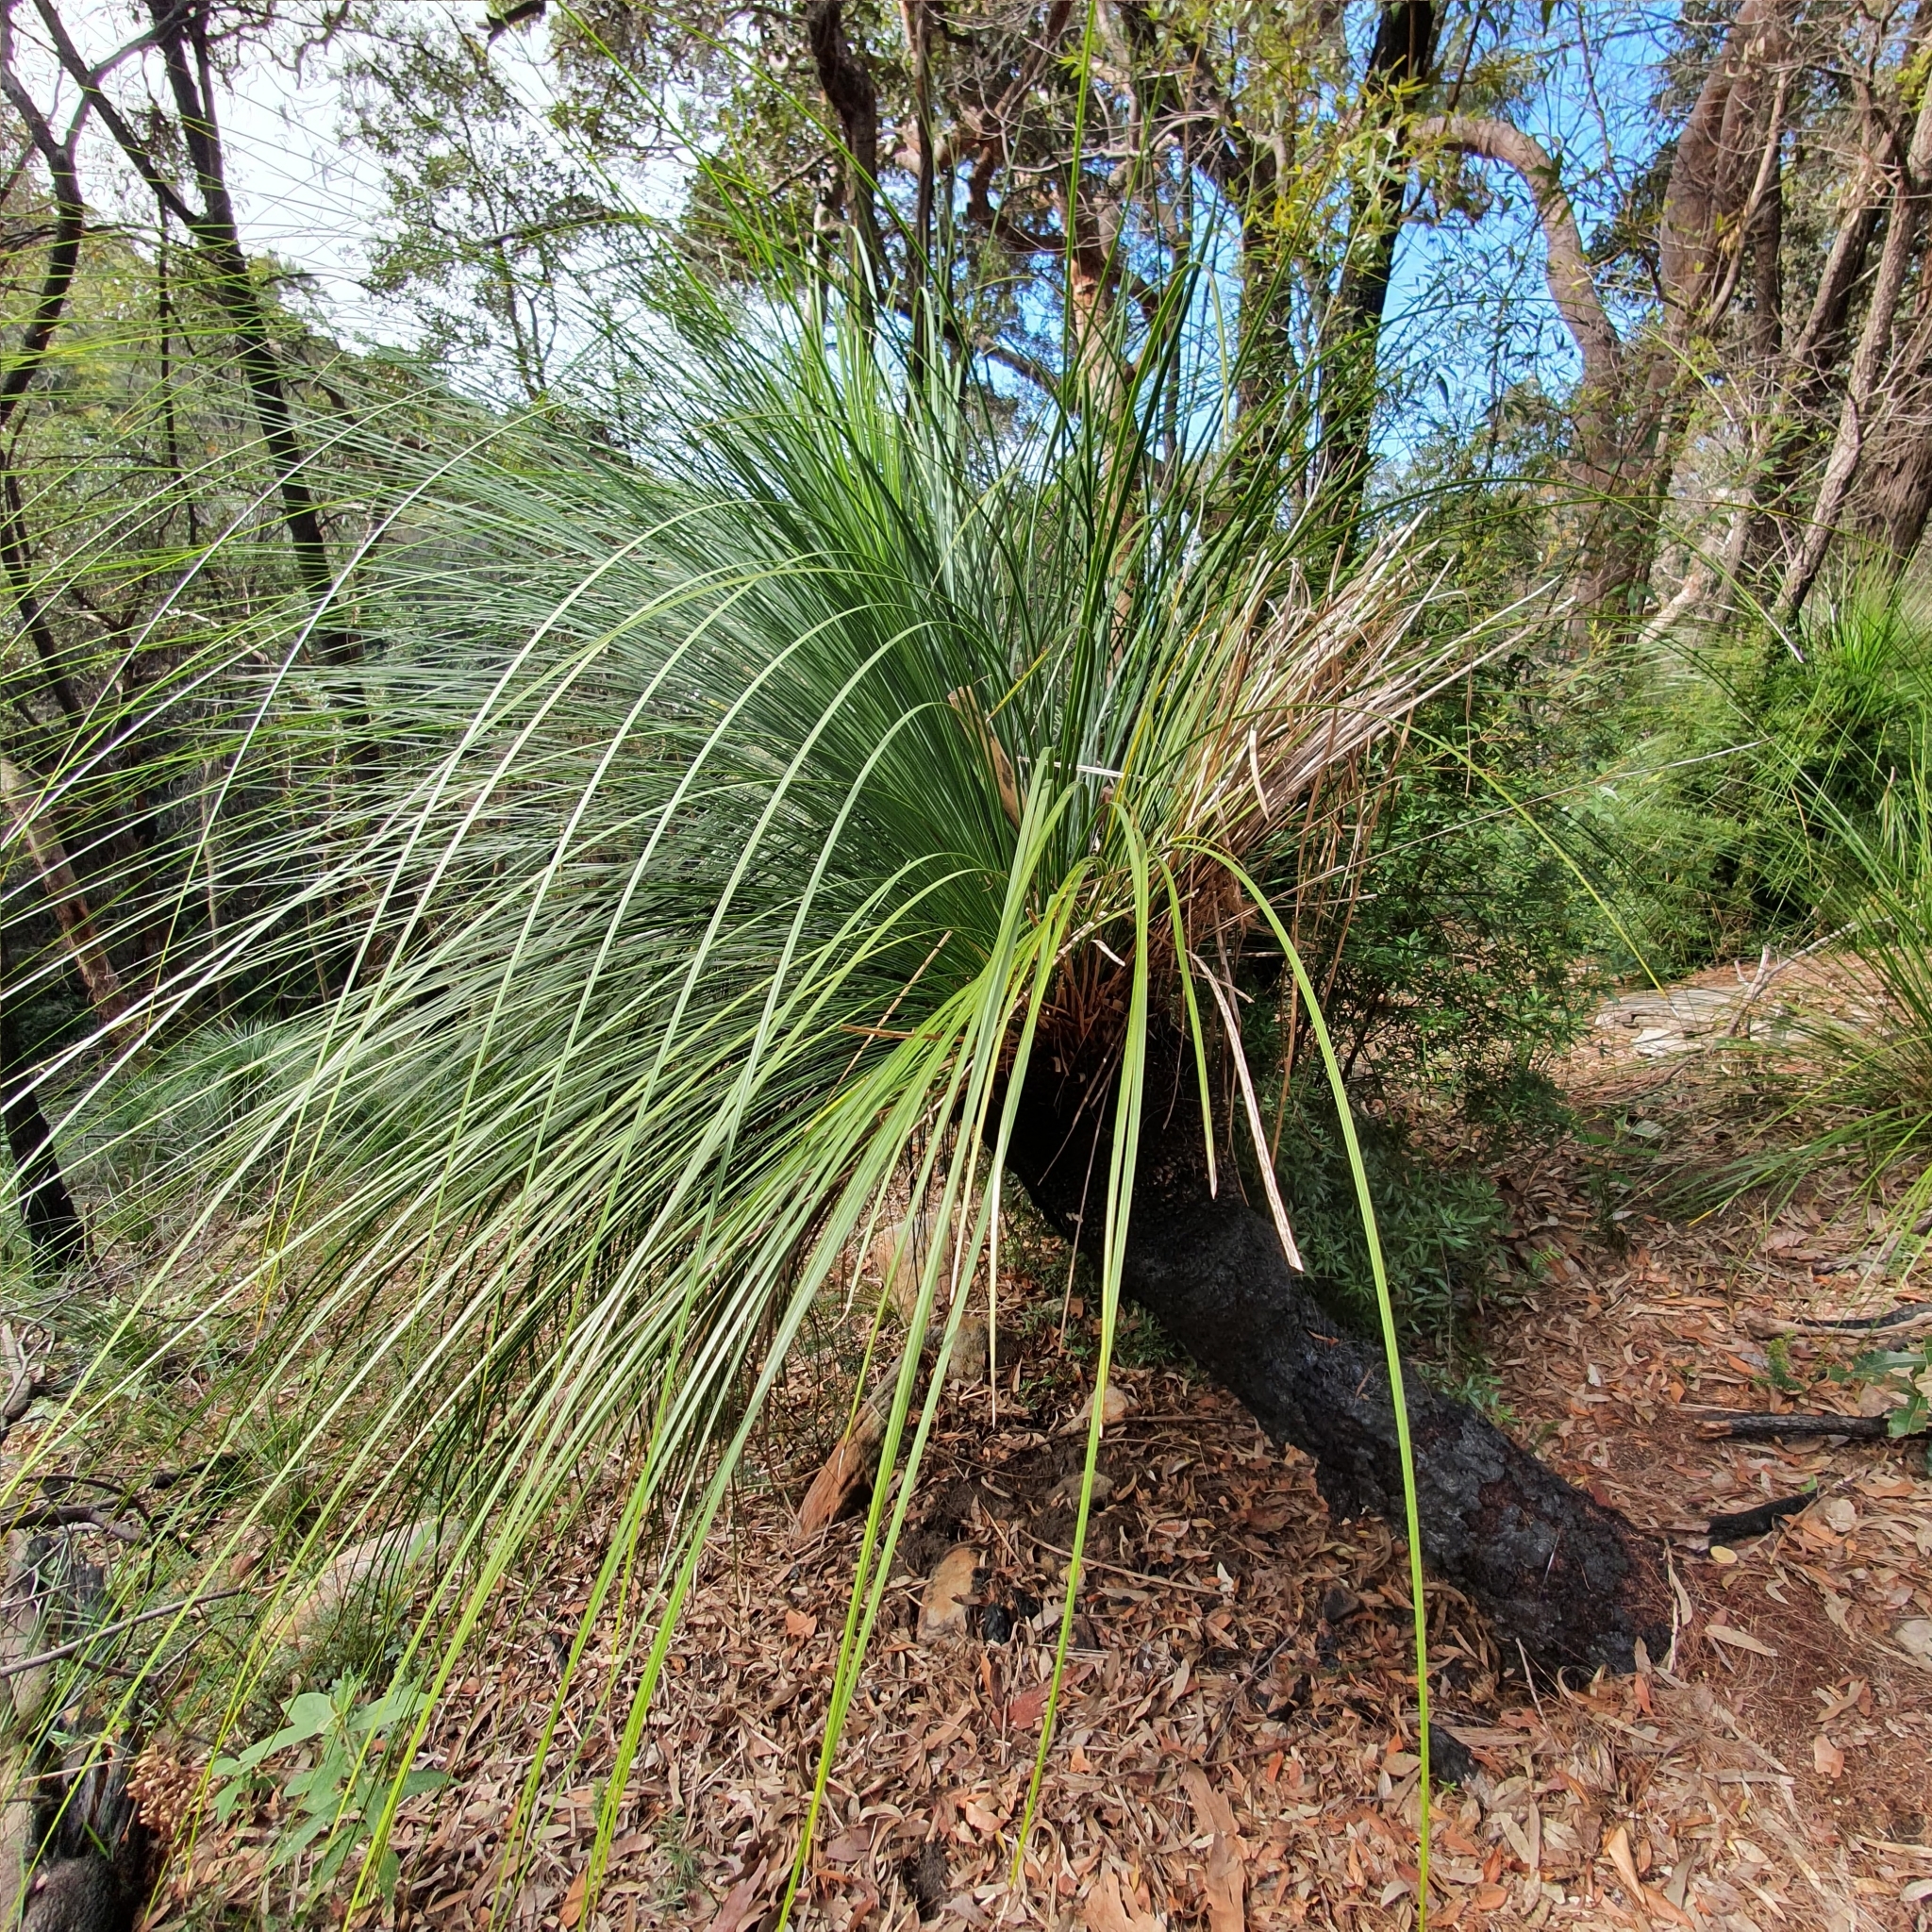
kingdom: Plantae
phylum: Tracheophyta
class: Liliopsida
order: Asparagales
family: Asphodelaceae
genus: Xanthorrhoea
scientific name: Xanthorrhoea arborea
